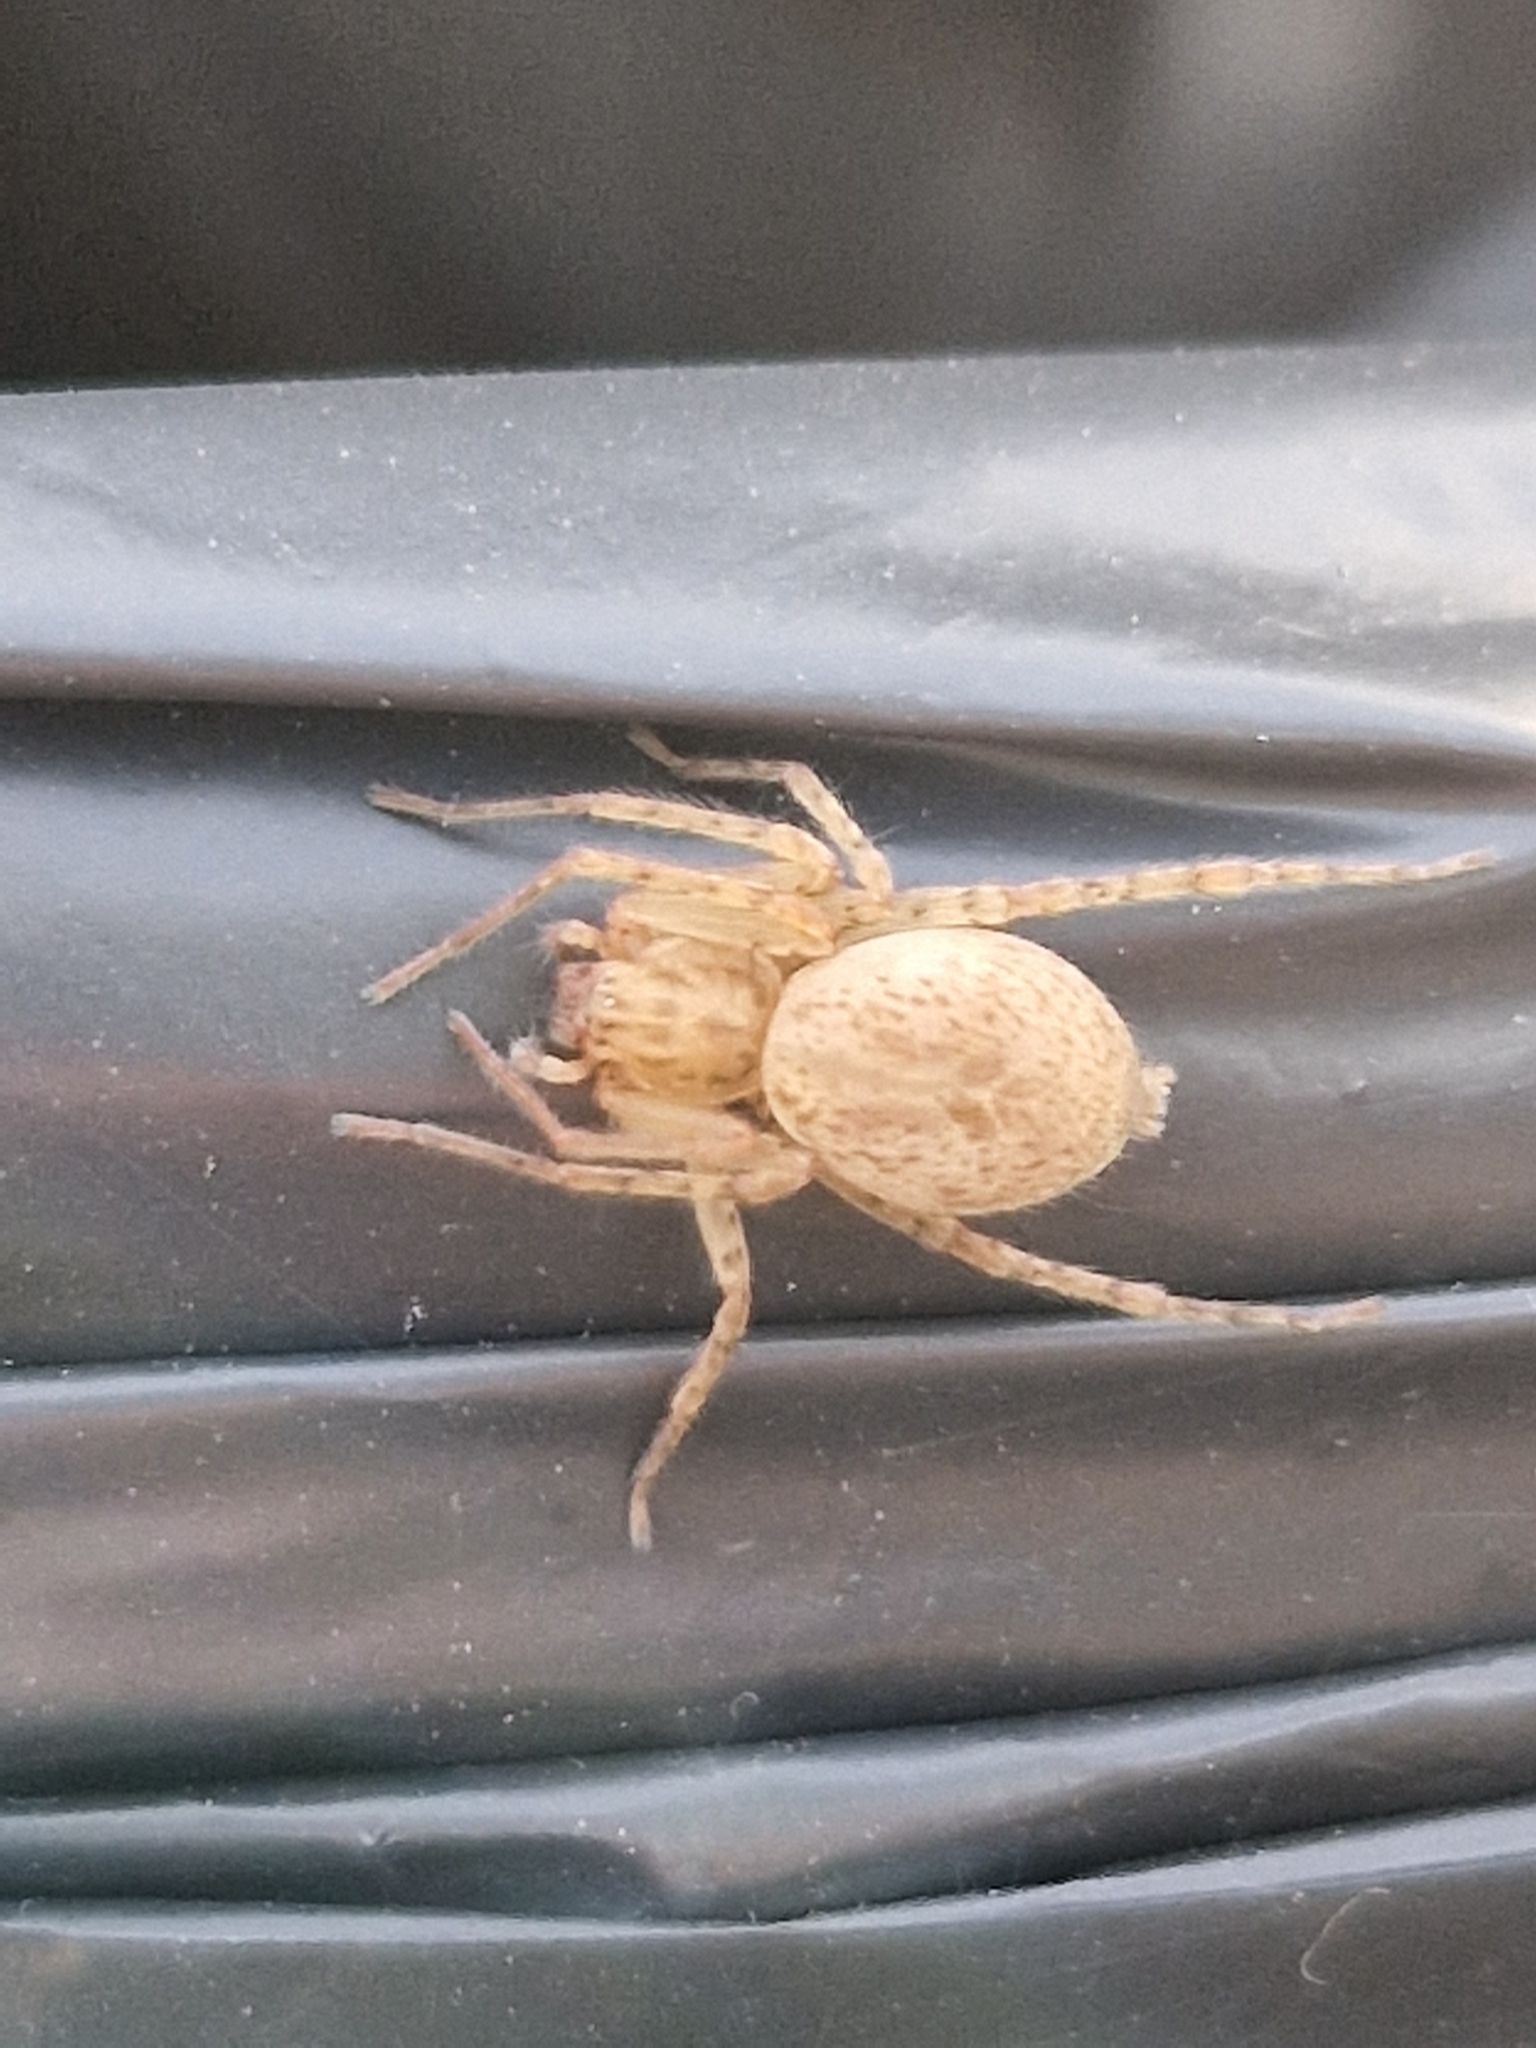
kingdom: Animalia
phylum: Arthropoda
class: Arachnida
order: Araneae
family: Anyphaenidae
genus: Anyphaena
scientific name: Anyphaena numida
